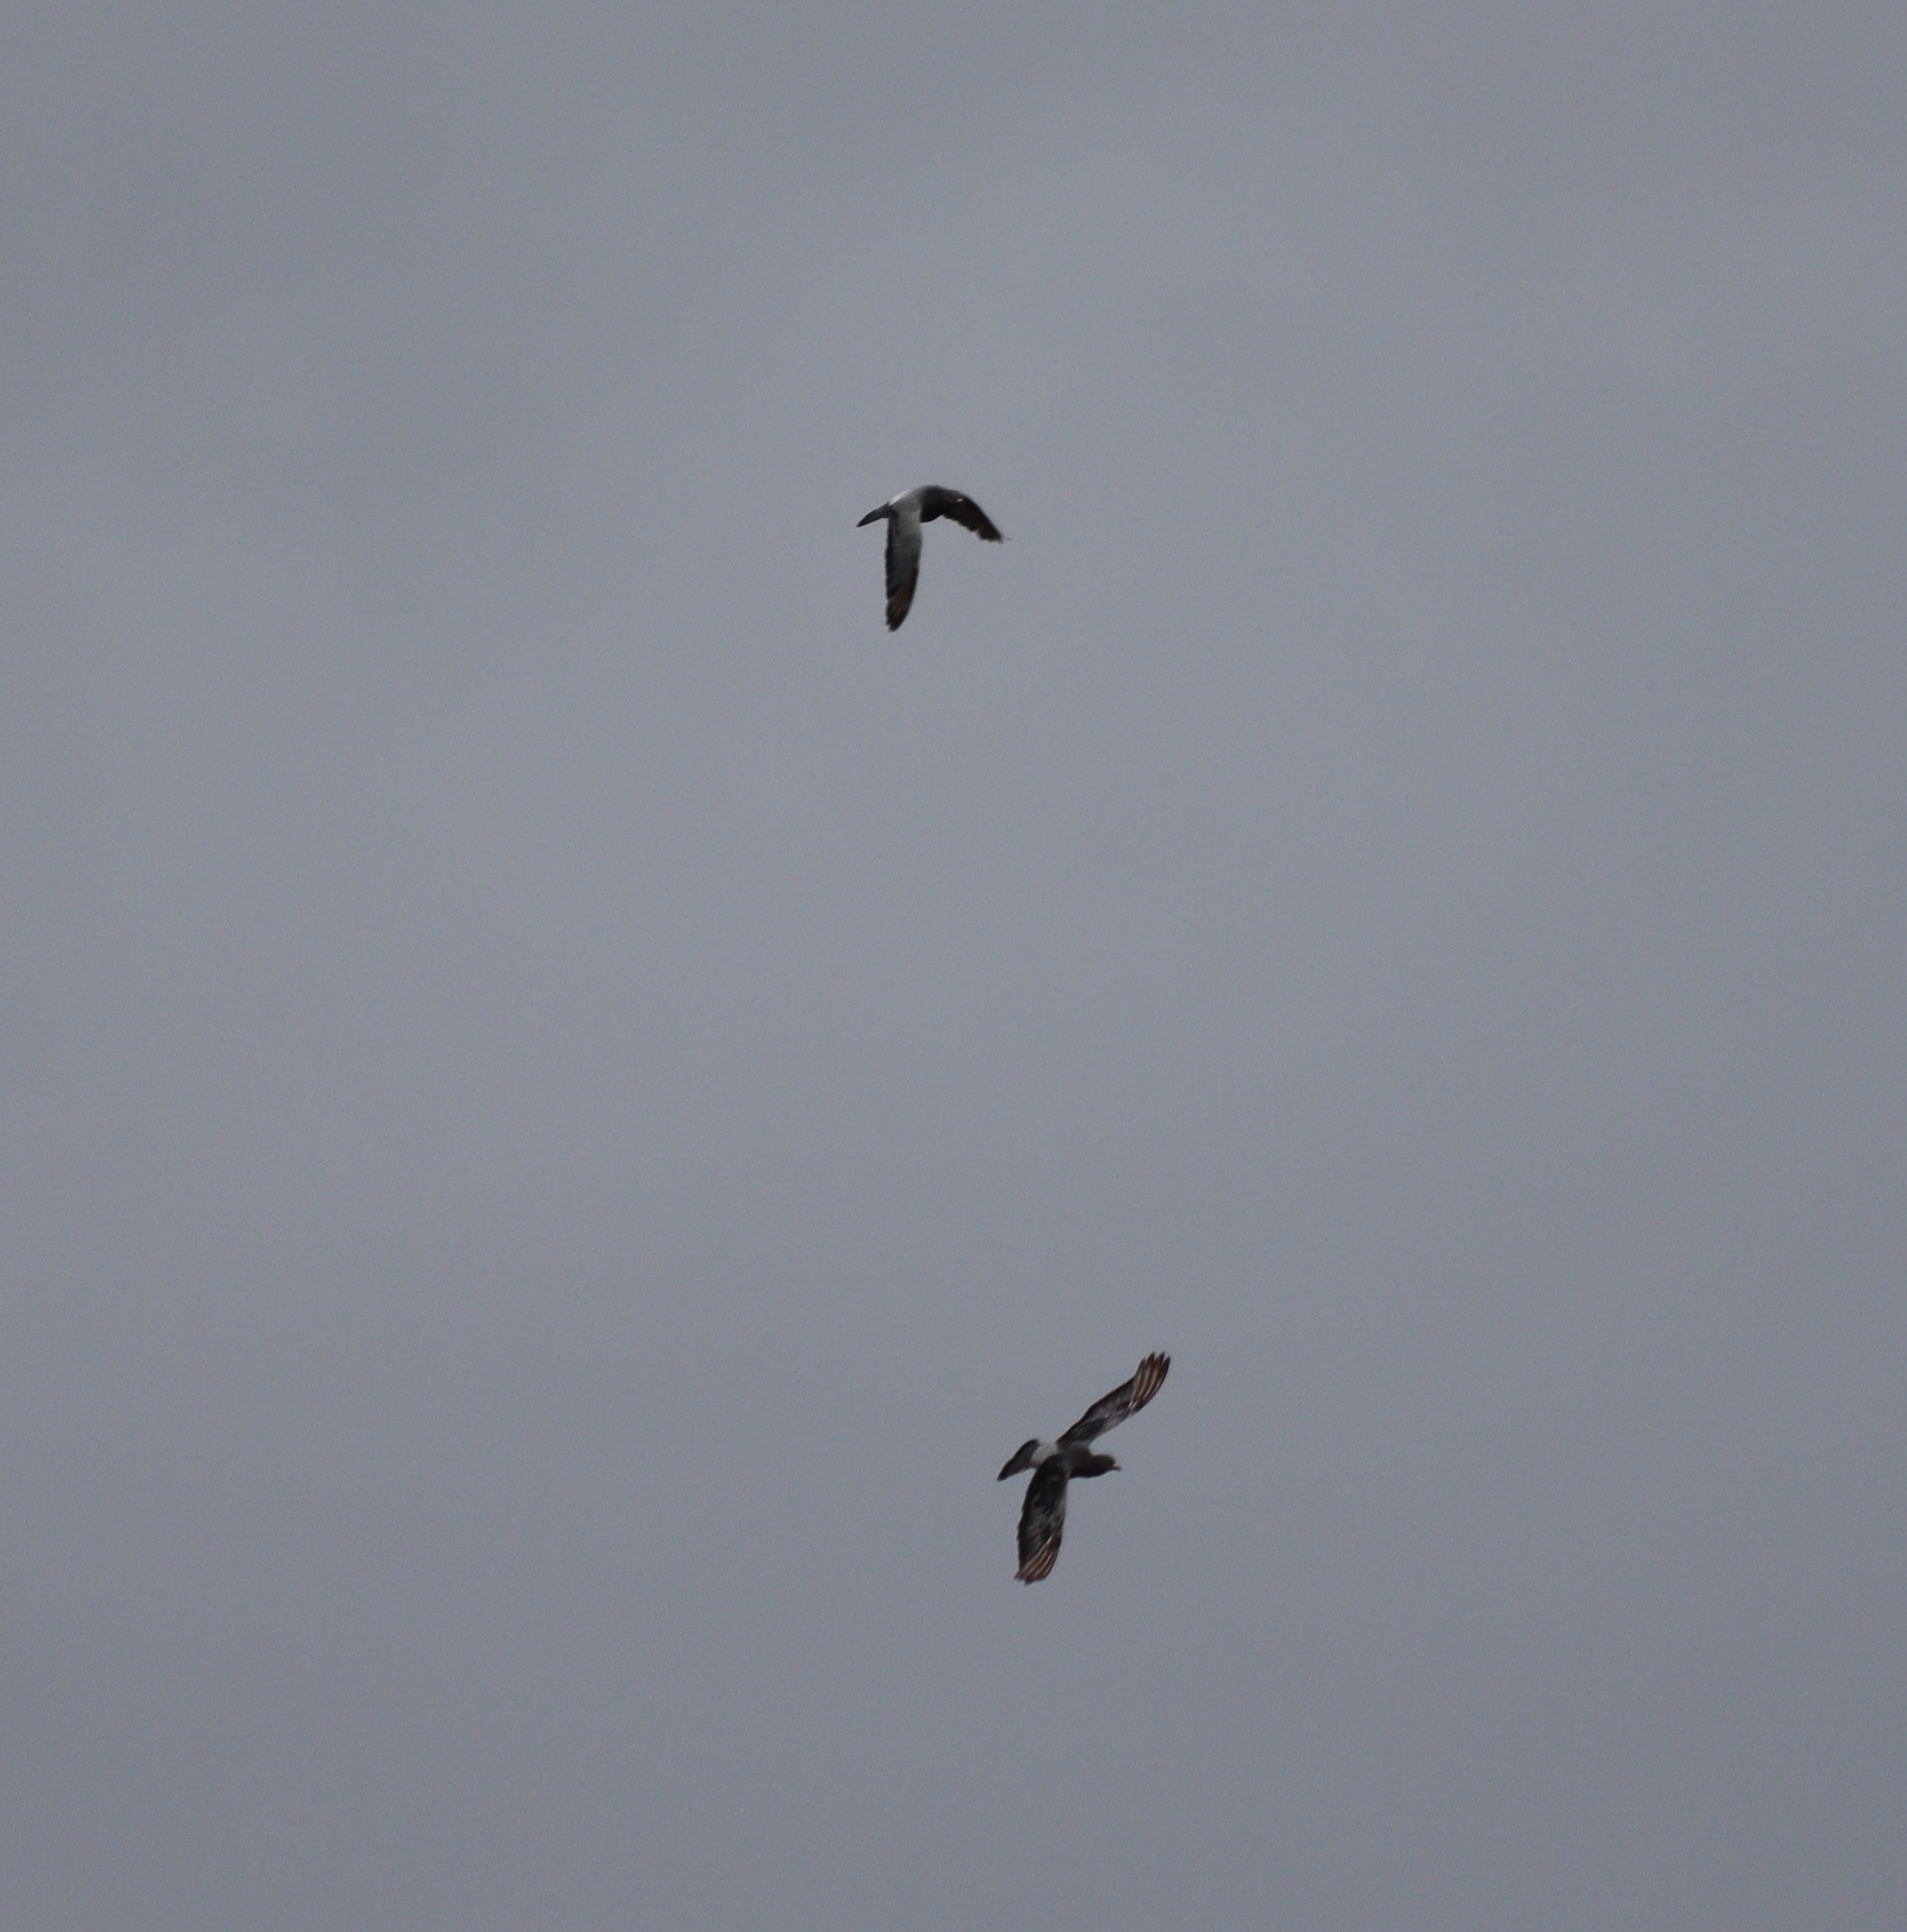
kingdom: Animalia
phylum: Chordata
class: Aves
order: Columbiformes
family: Columbidae
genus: Columba
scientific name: Columba livia
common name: Rock pigeon
